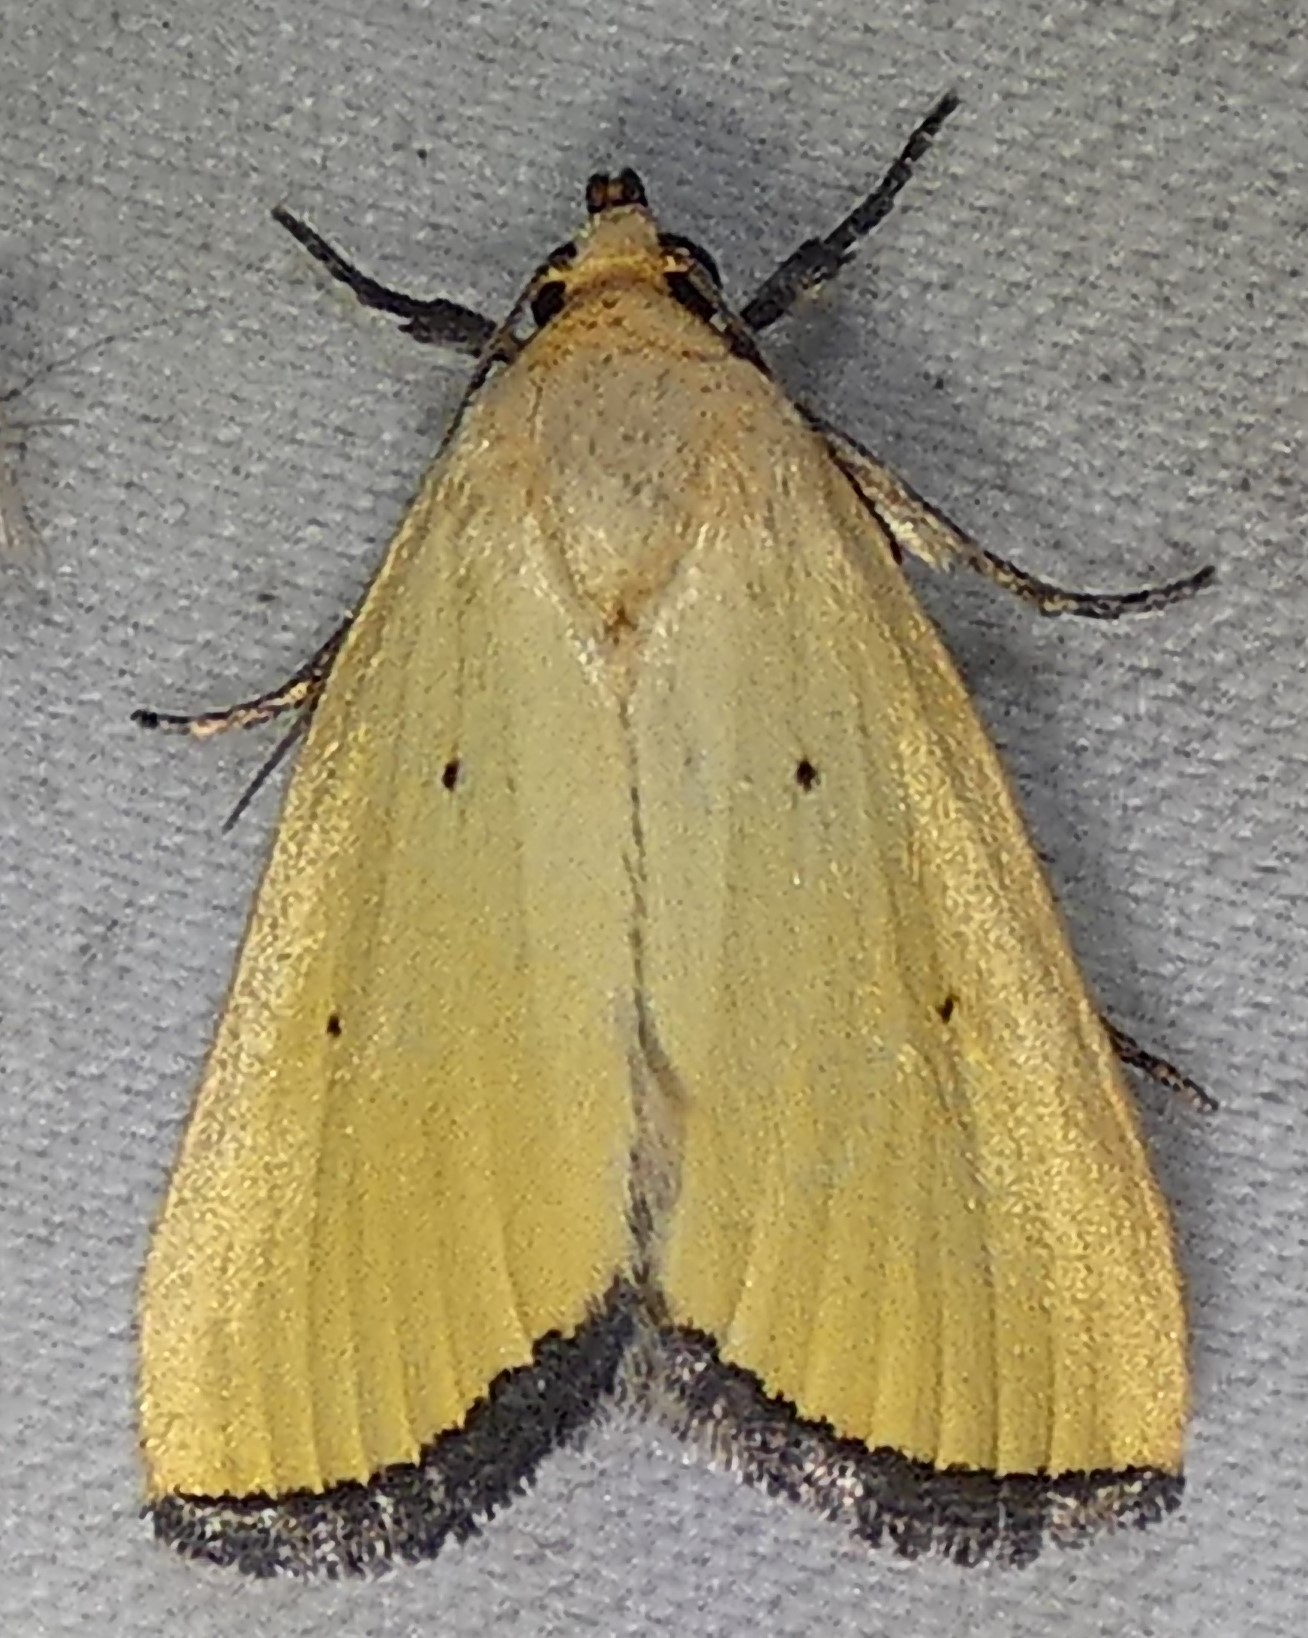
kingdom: Animalia
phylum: Arthropoda
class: Insecta
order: Lepidoptera
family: Noctuidae
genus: Marimatha
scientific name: Marimatha nigrofimbria
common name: Black-bordered lemon moth
